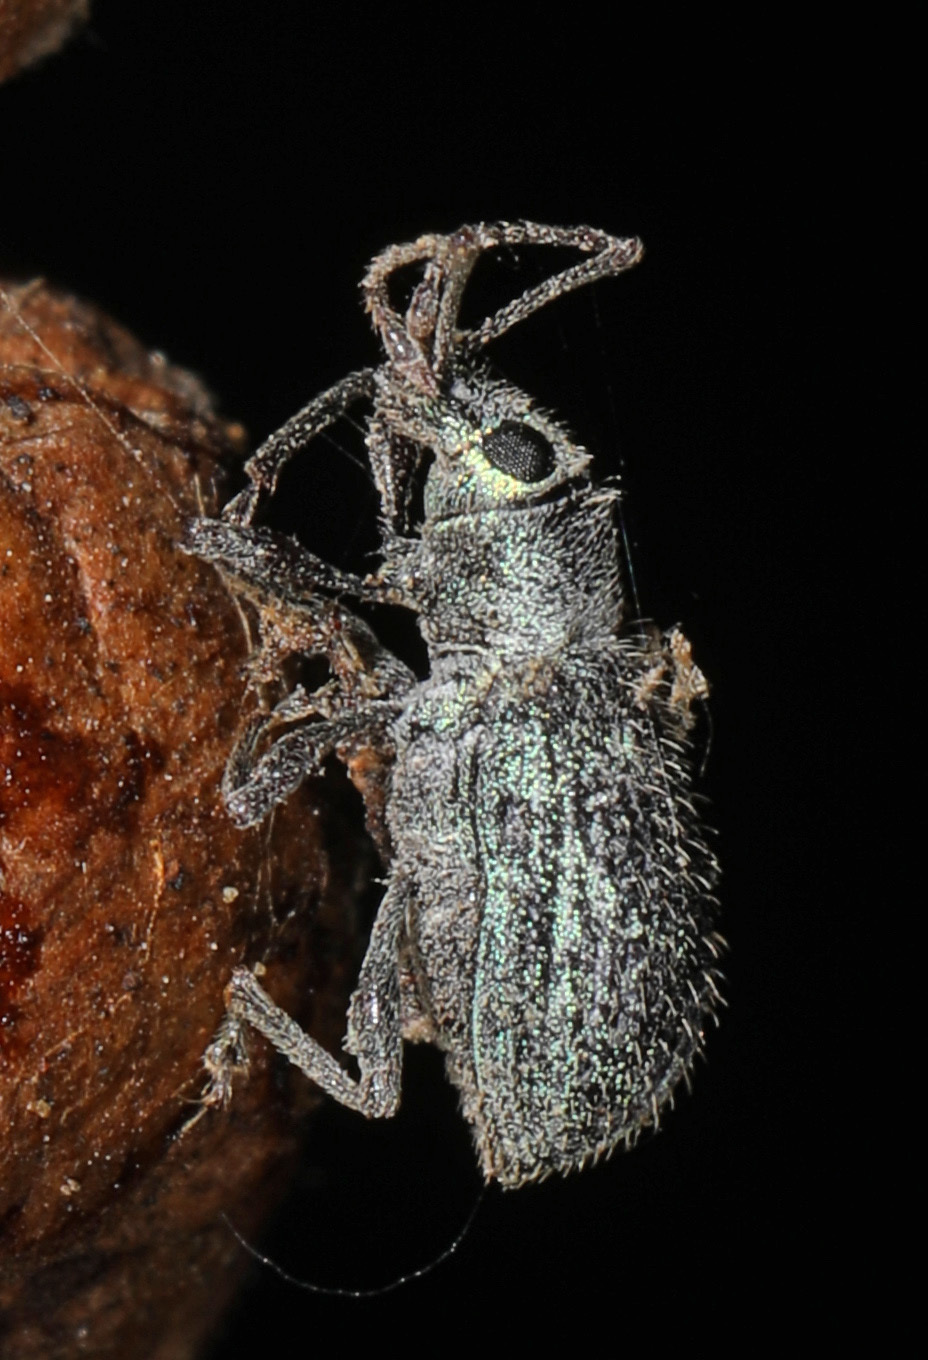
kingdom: Animalia
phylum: Arthropoda
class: Insecta
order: Coleoptera
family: Curculionidae
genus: Cyrtepistomus
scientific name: Cyrtepistomus castaneus
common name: Weevil
